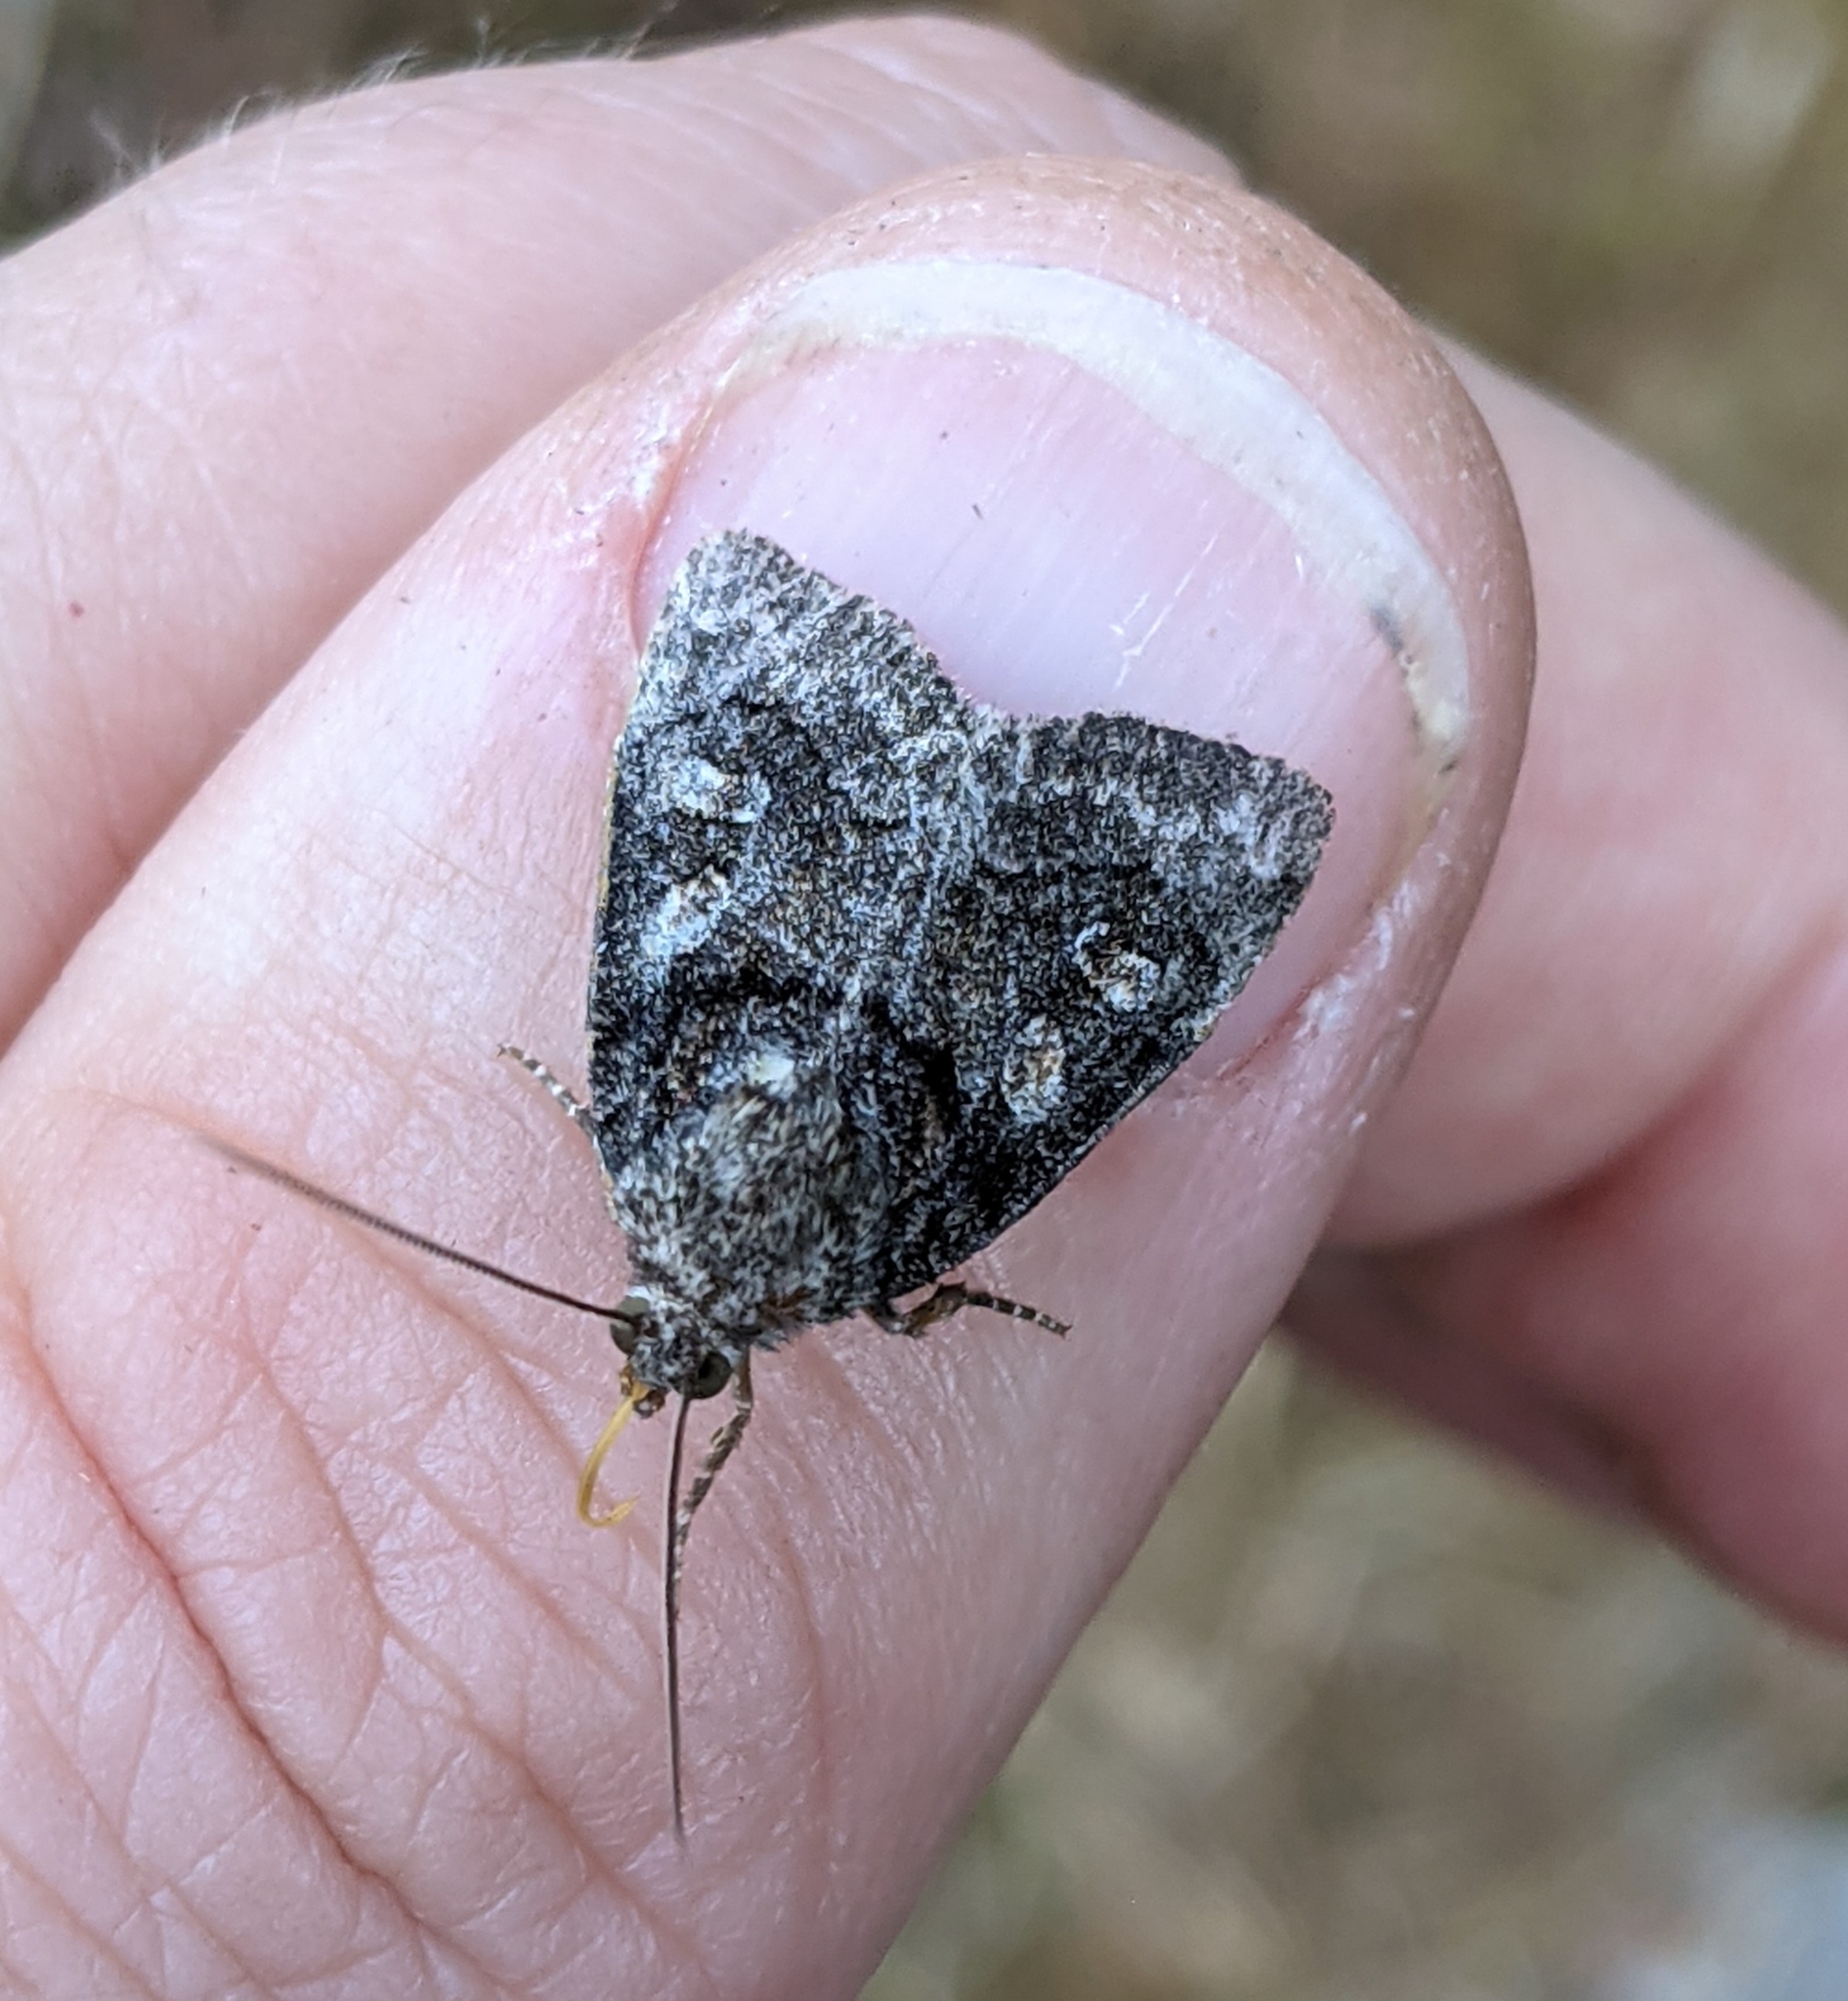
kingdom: Animalia
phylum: Arthropoda
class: Insecta
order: Lepidoptera
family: Noctuidae
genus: Cosmia
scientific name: Cosmia praeacuta
